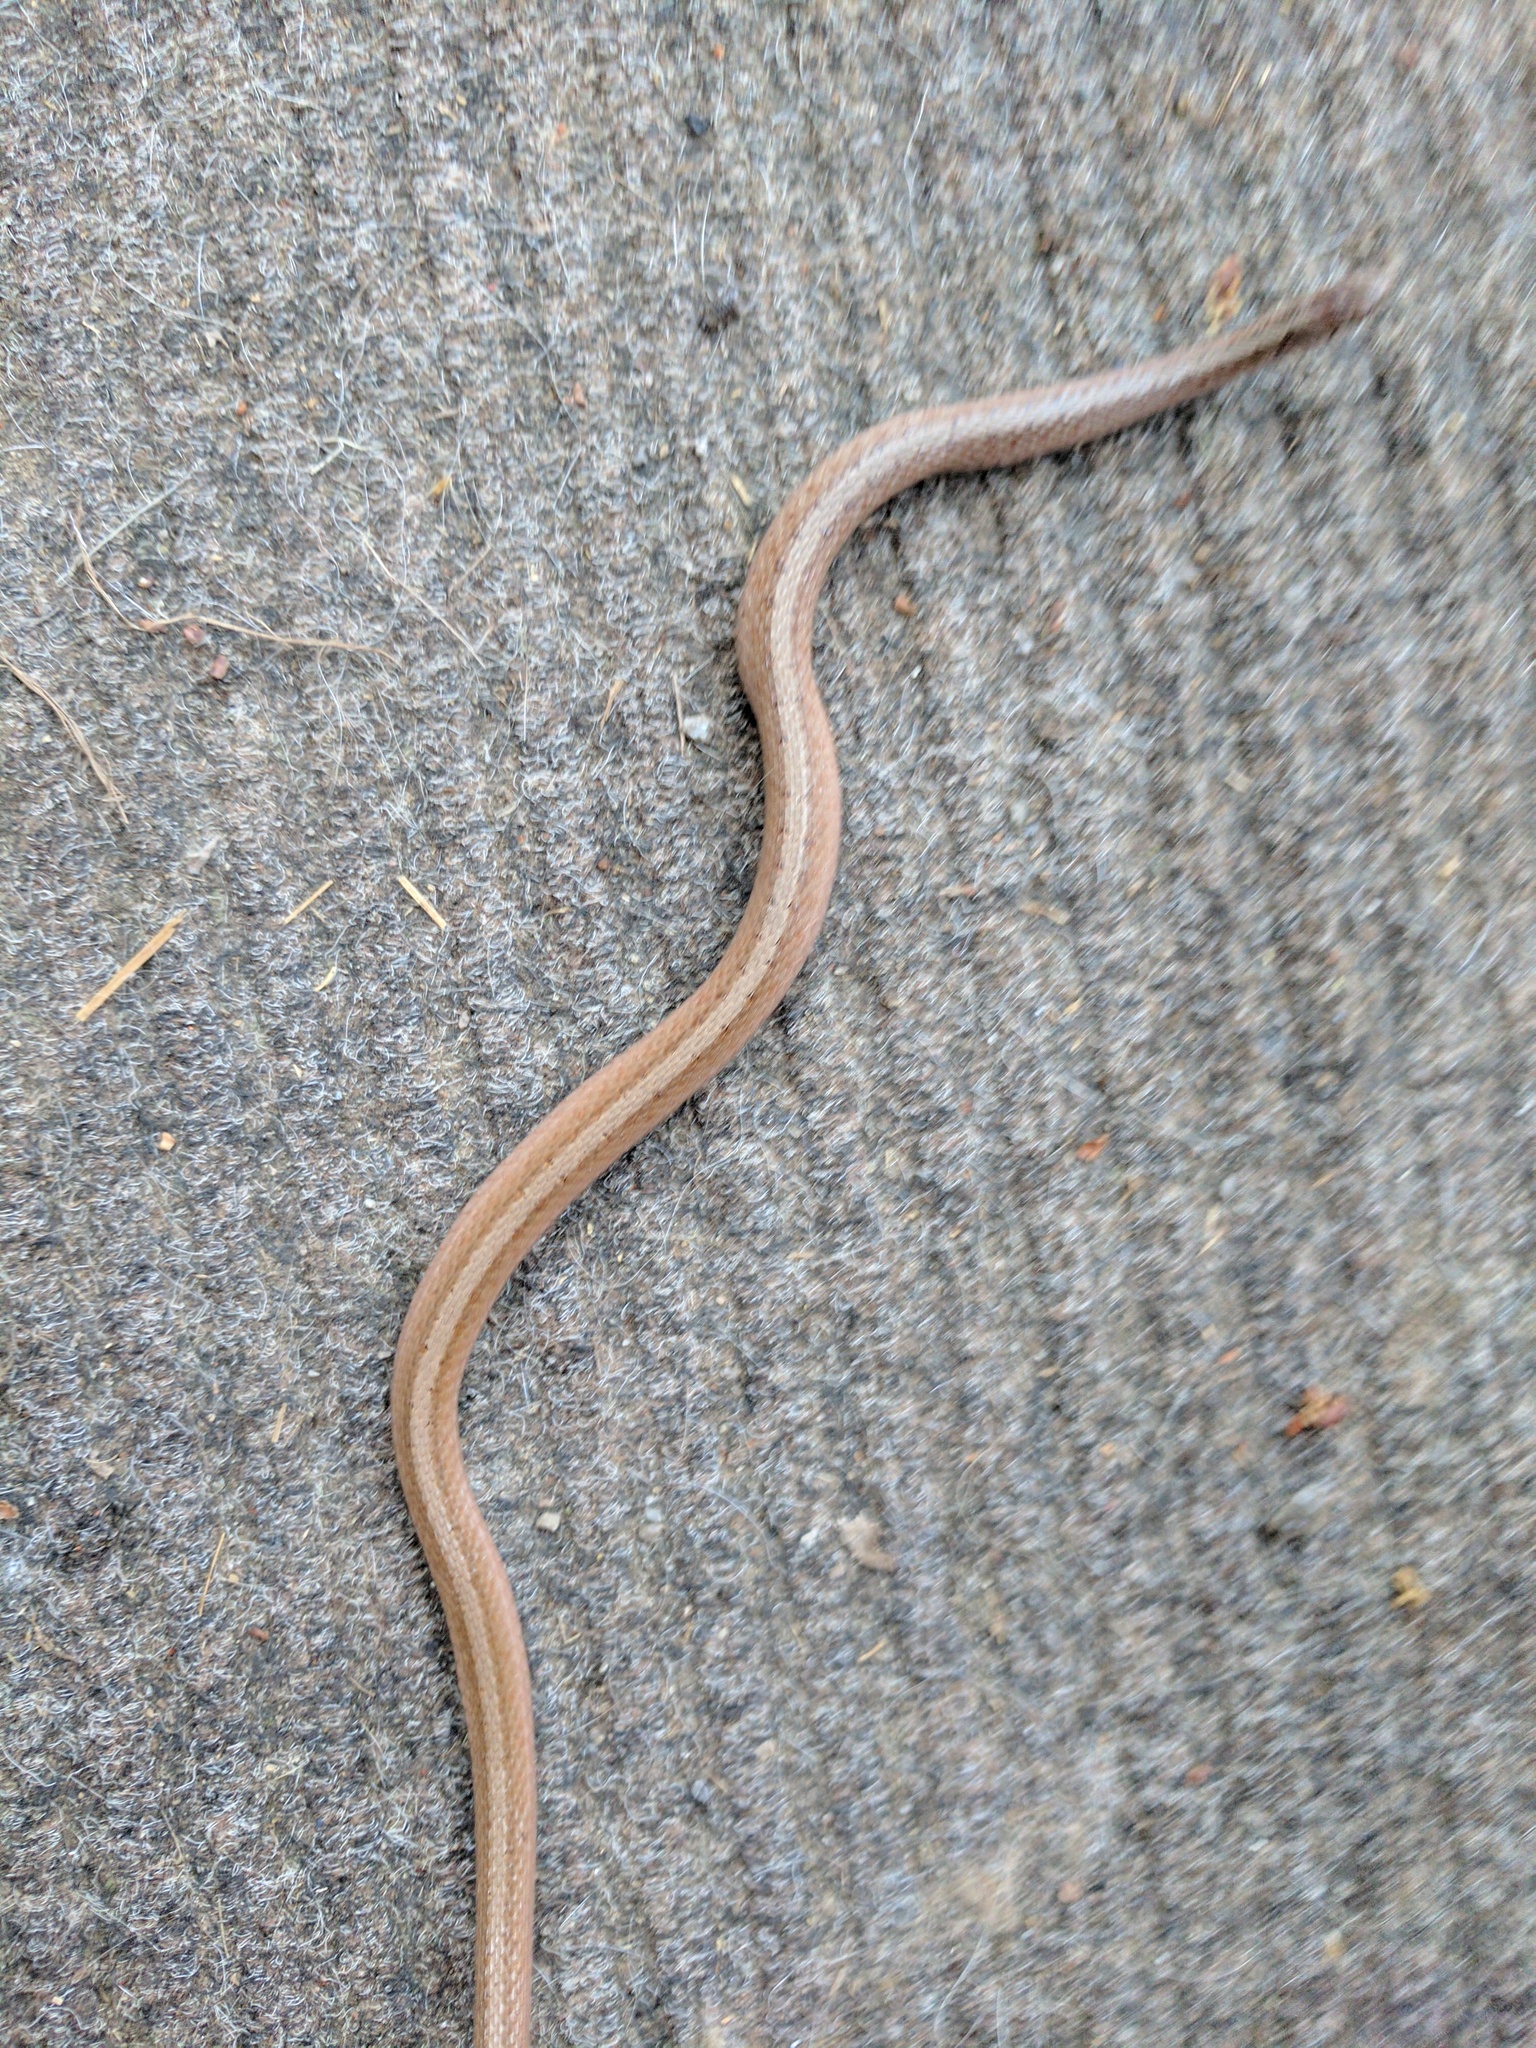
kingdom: Animalia
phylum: Chordata
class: Squamata
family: Colubridae
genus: Storeria
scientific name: Storeria dekayi
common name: (dekay’s) brown snake
